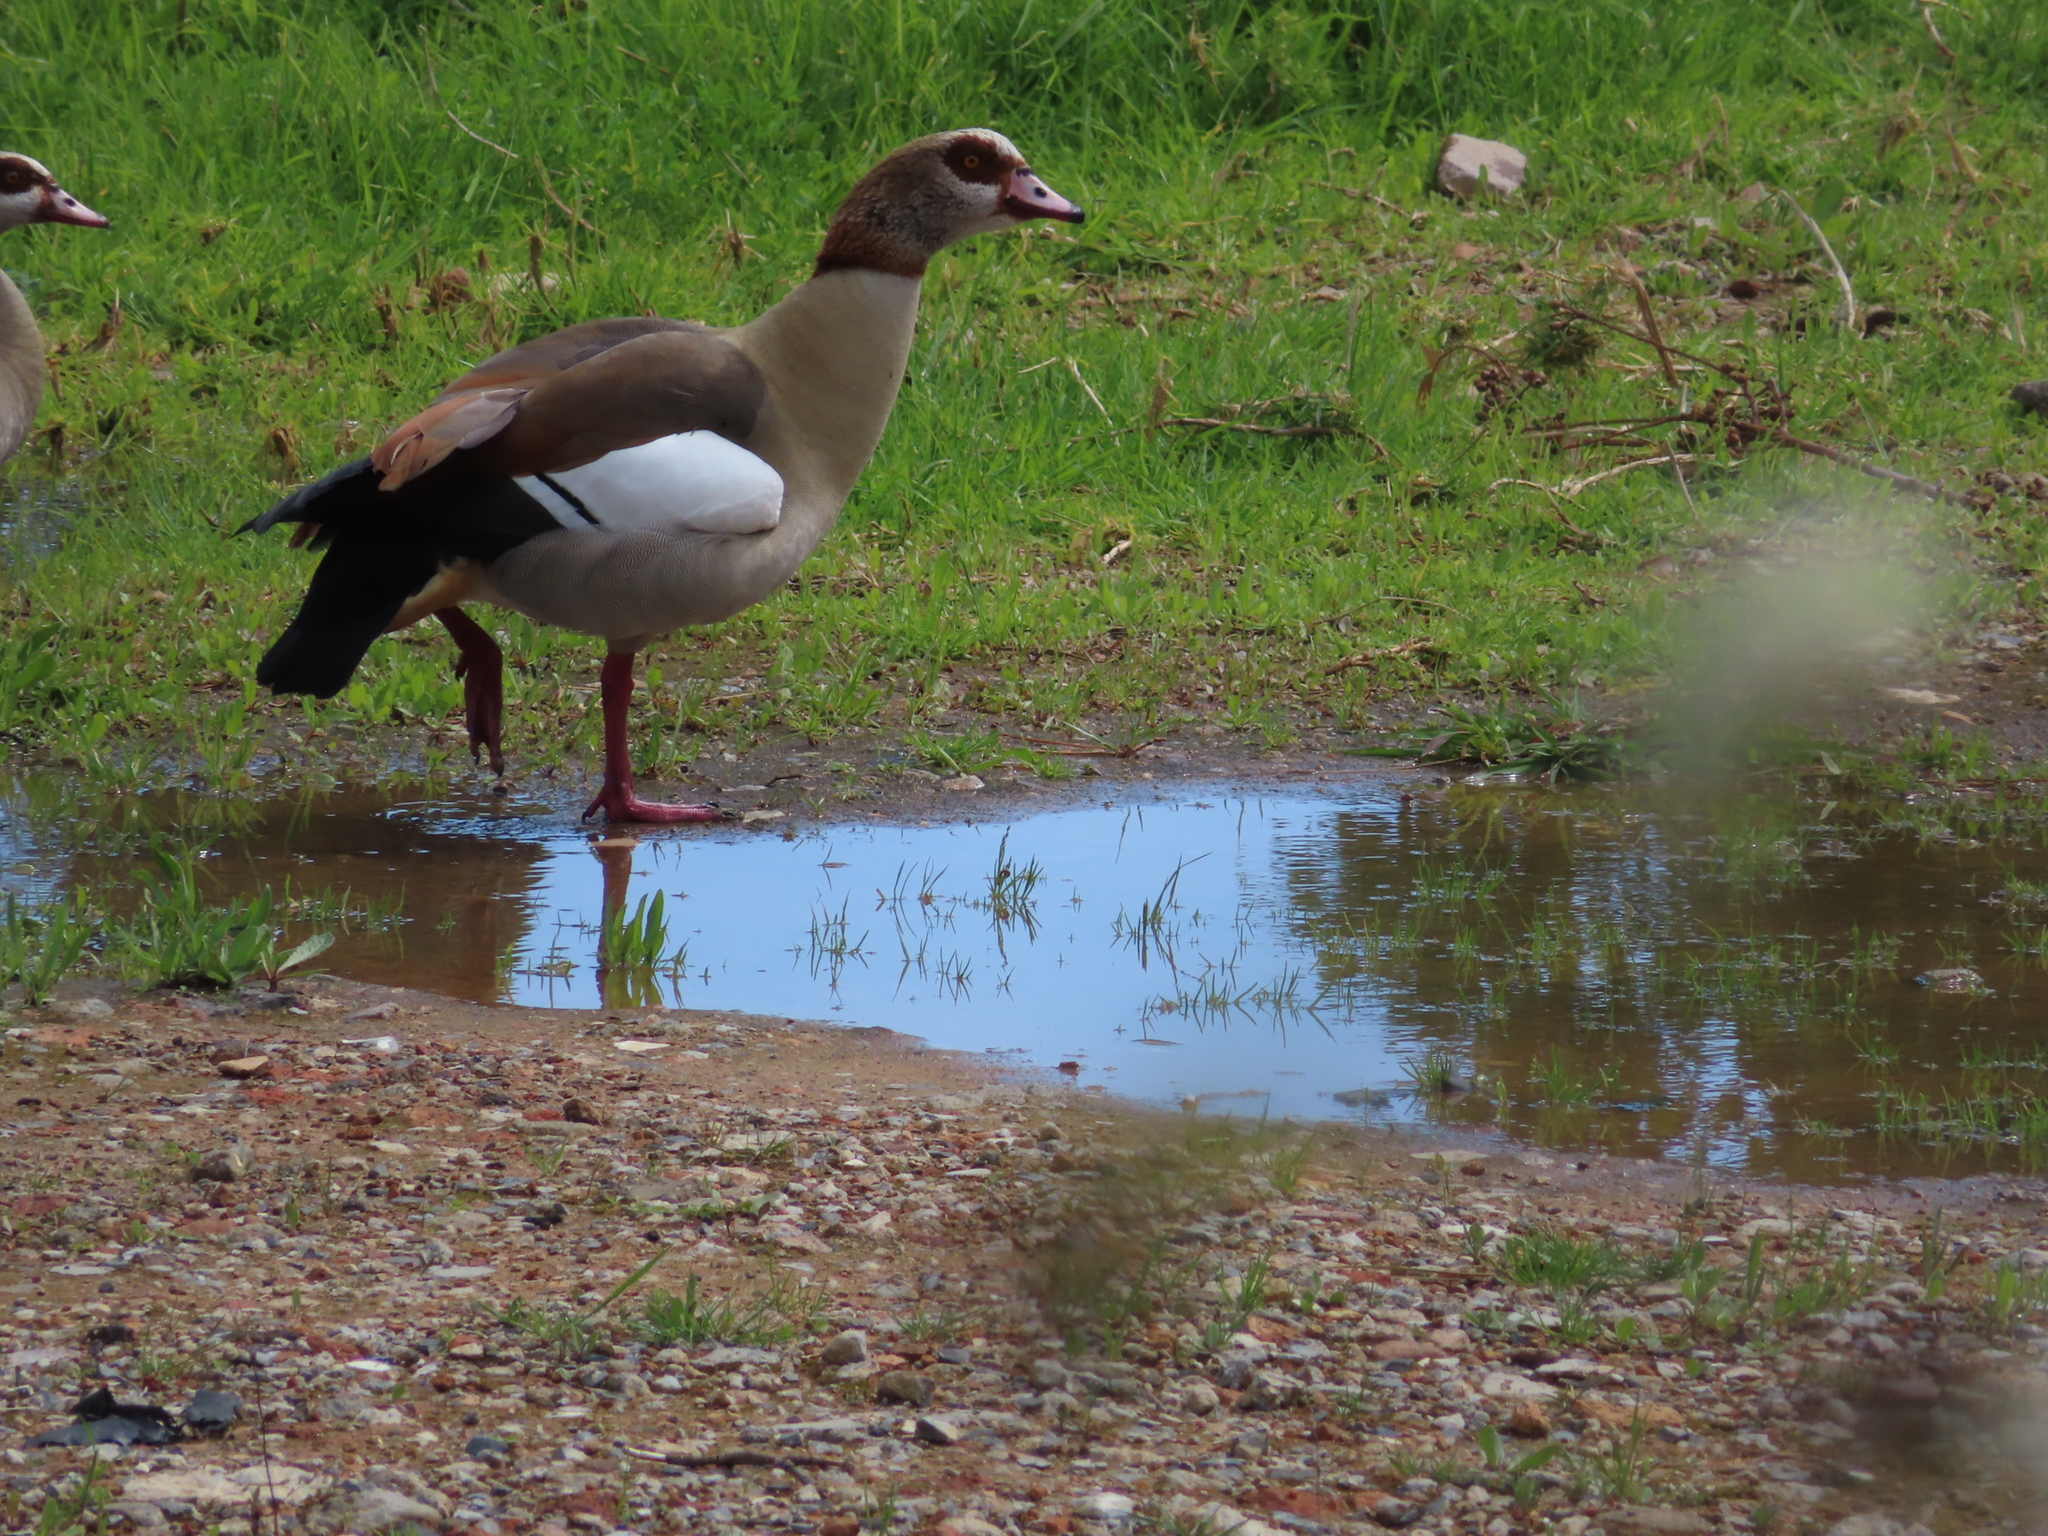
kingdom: Animalia
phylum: Chordata
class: Aves
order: Anseriformes
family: Anatidae
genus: Alopochen
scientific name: Alopochen aegyptiaca
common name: Egyptian goose
